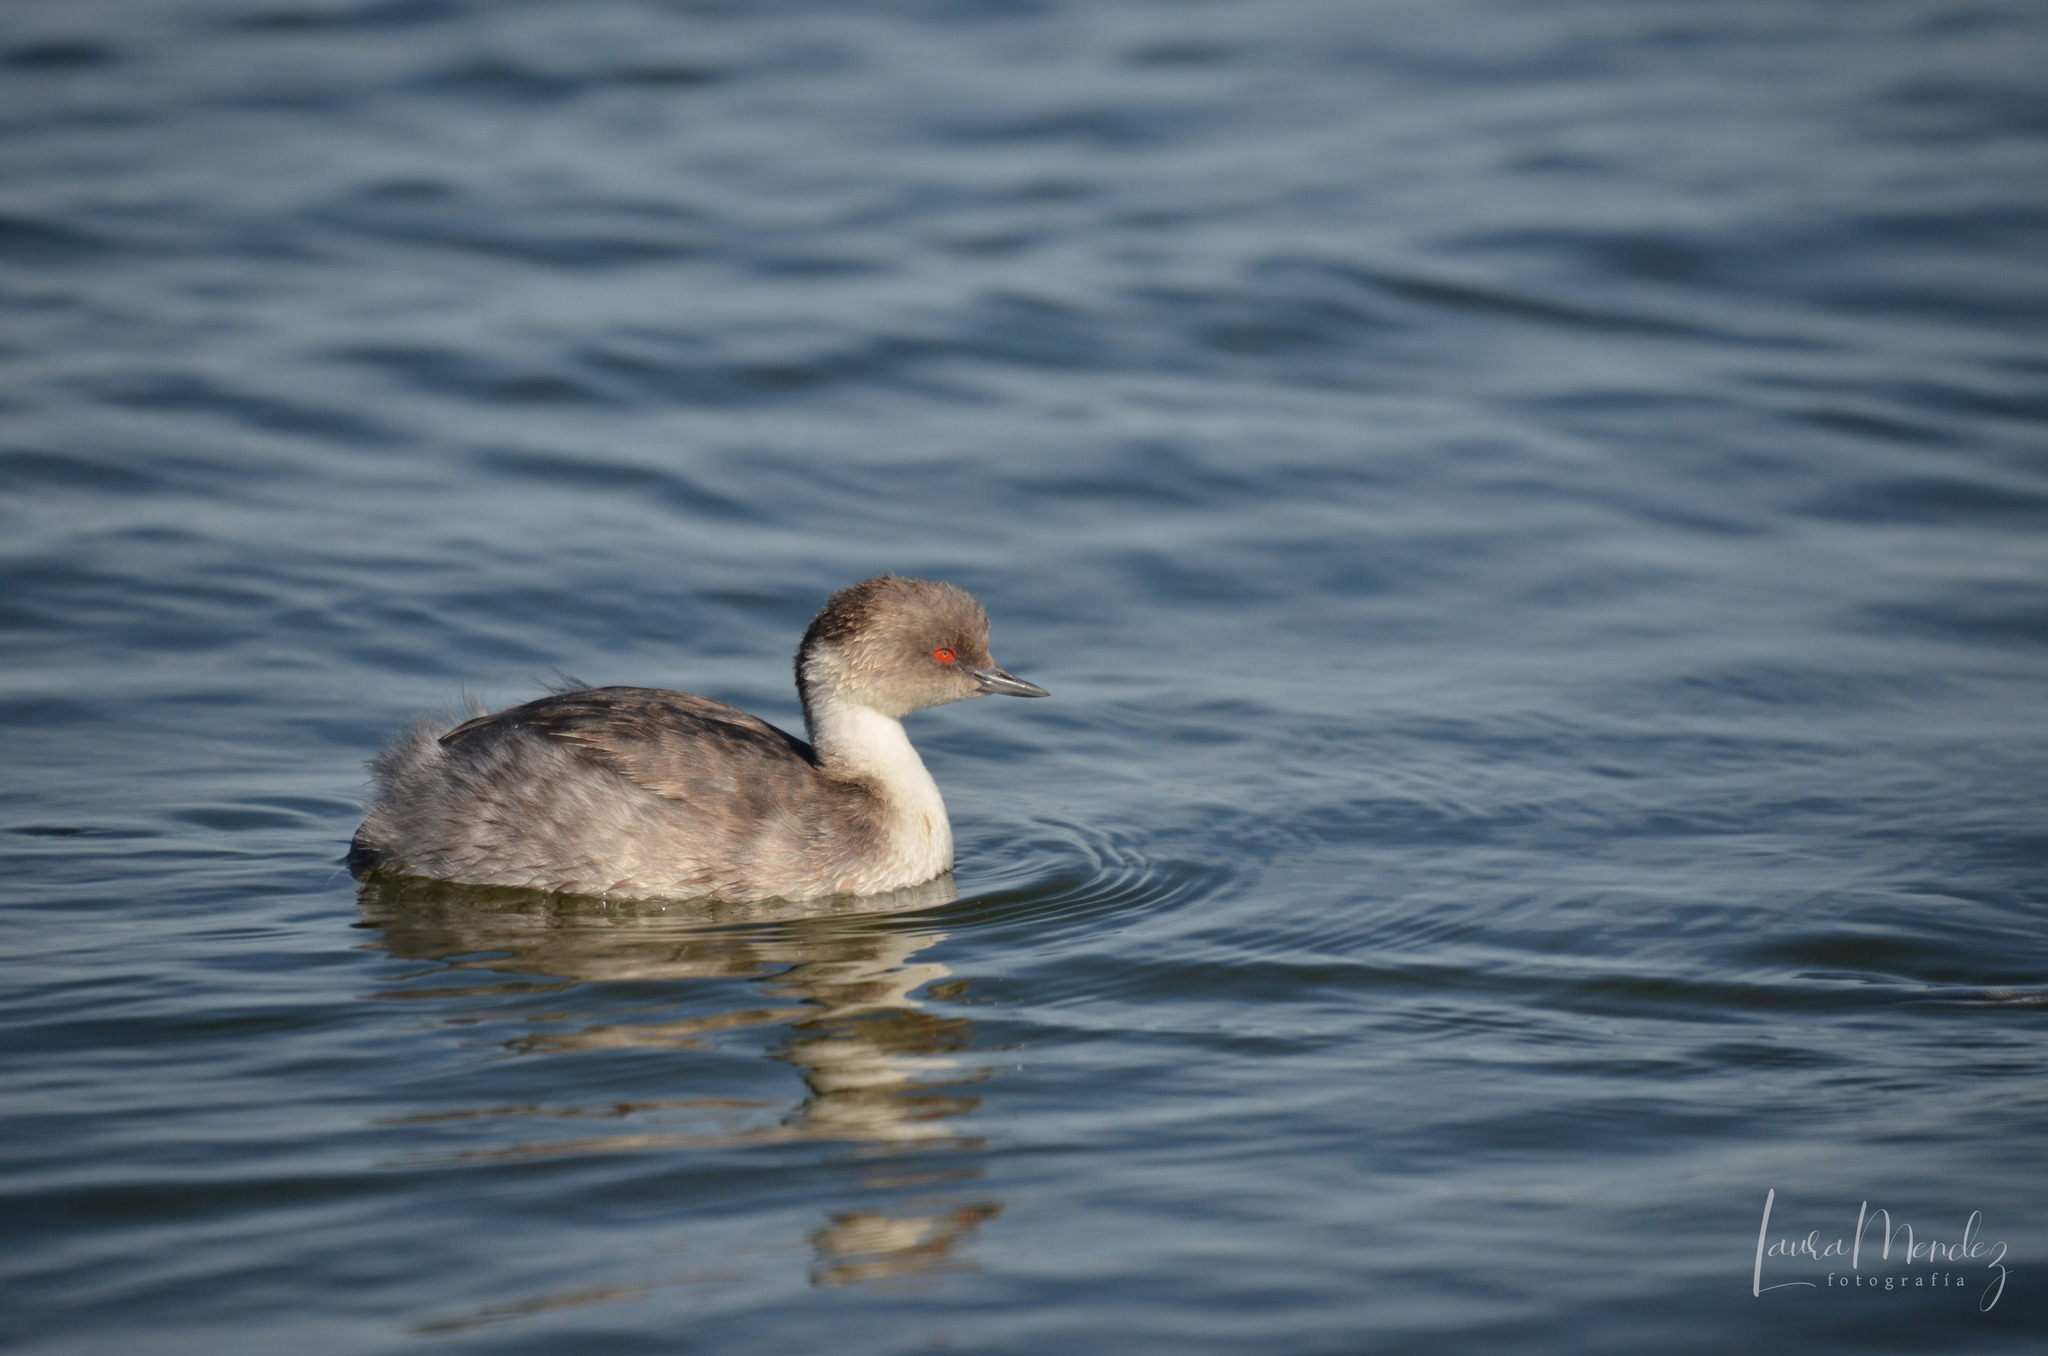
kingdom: Animalia
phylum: Chordata
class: Aves
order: Podicipediformes
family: Podicipedidae
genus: Podiceps
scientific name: Podiceps occipitalis
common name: Silvery grebe
